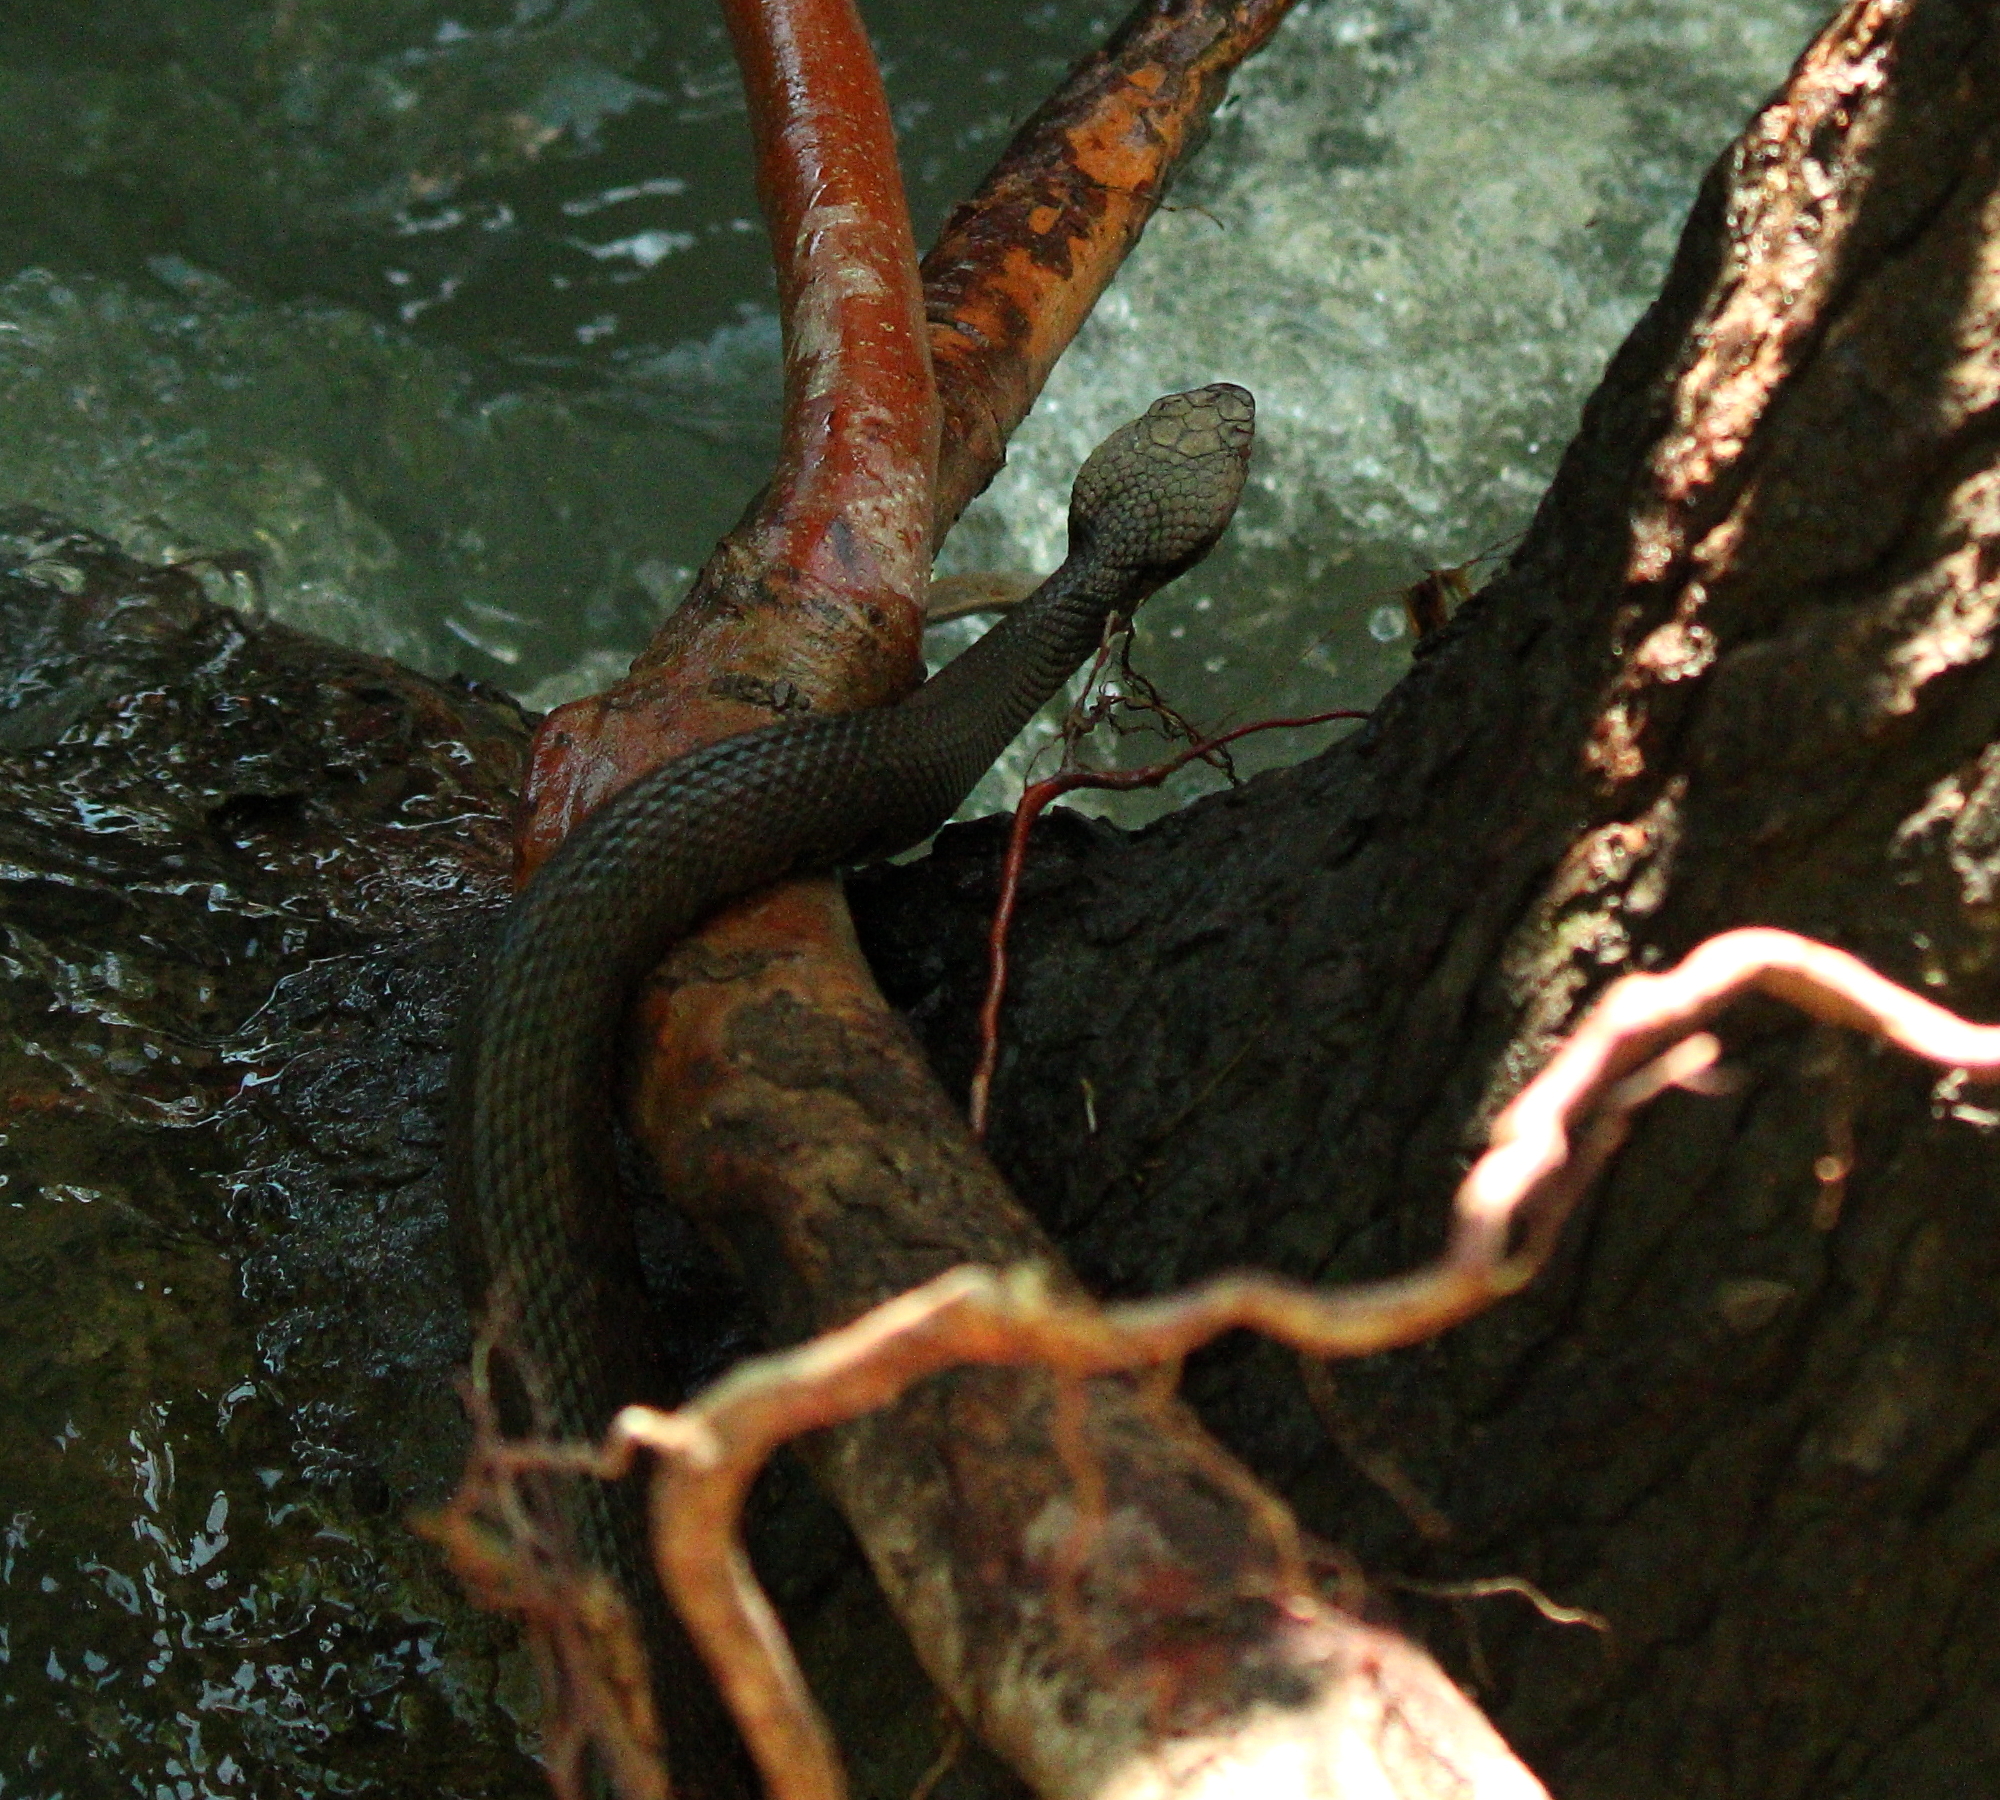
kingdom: Animalia
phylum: Chordata
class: Squamata
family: Viperidae
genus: Agkistrodon
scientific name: Agkistrodon piscivorus
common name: Cottonmouth
